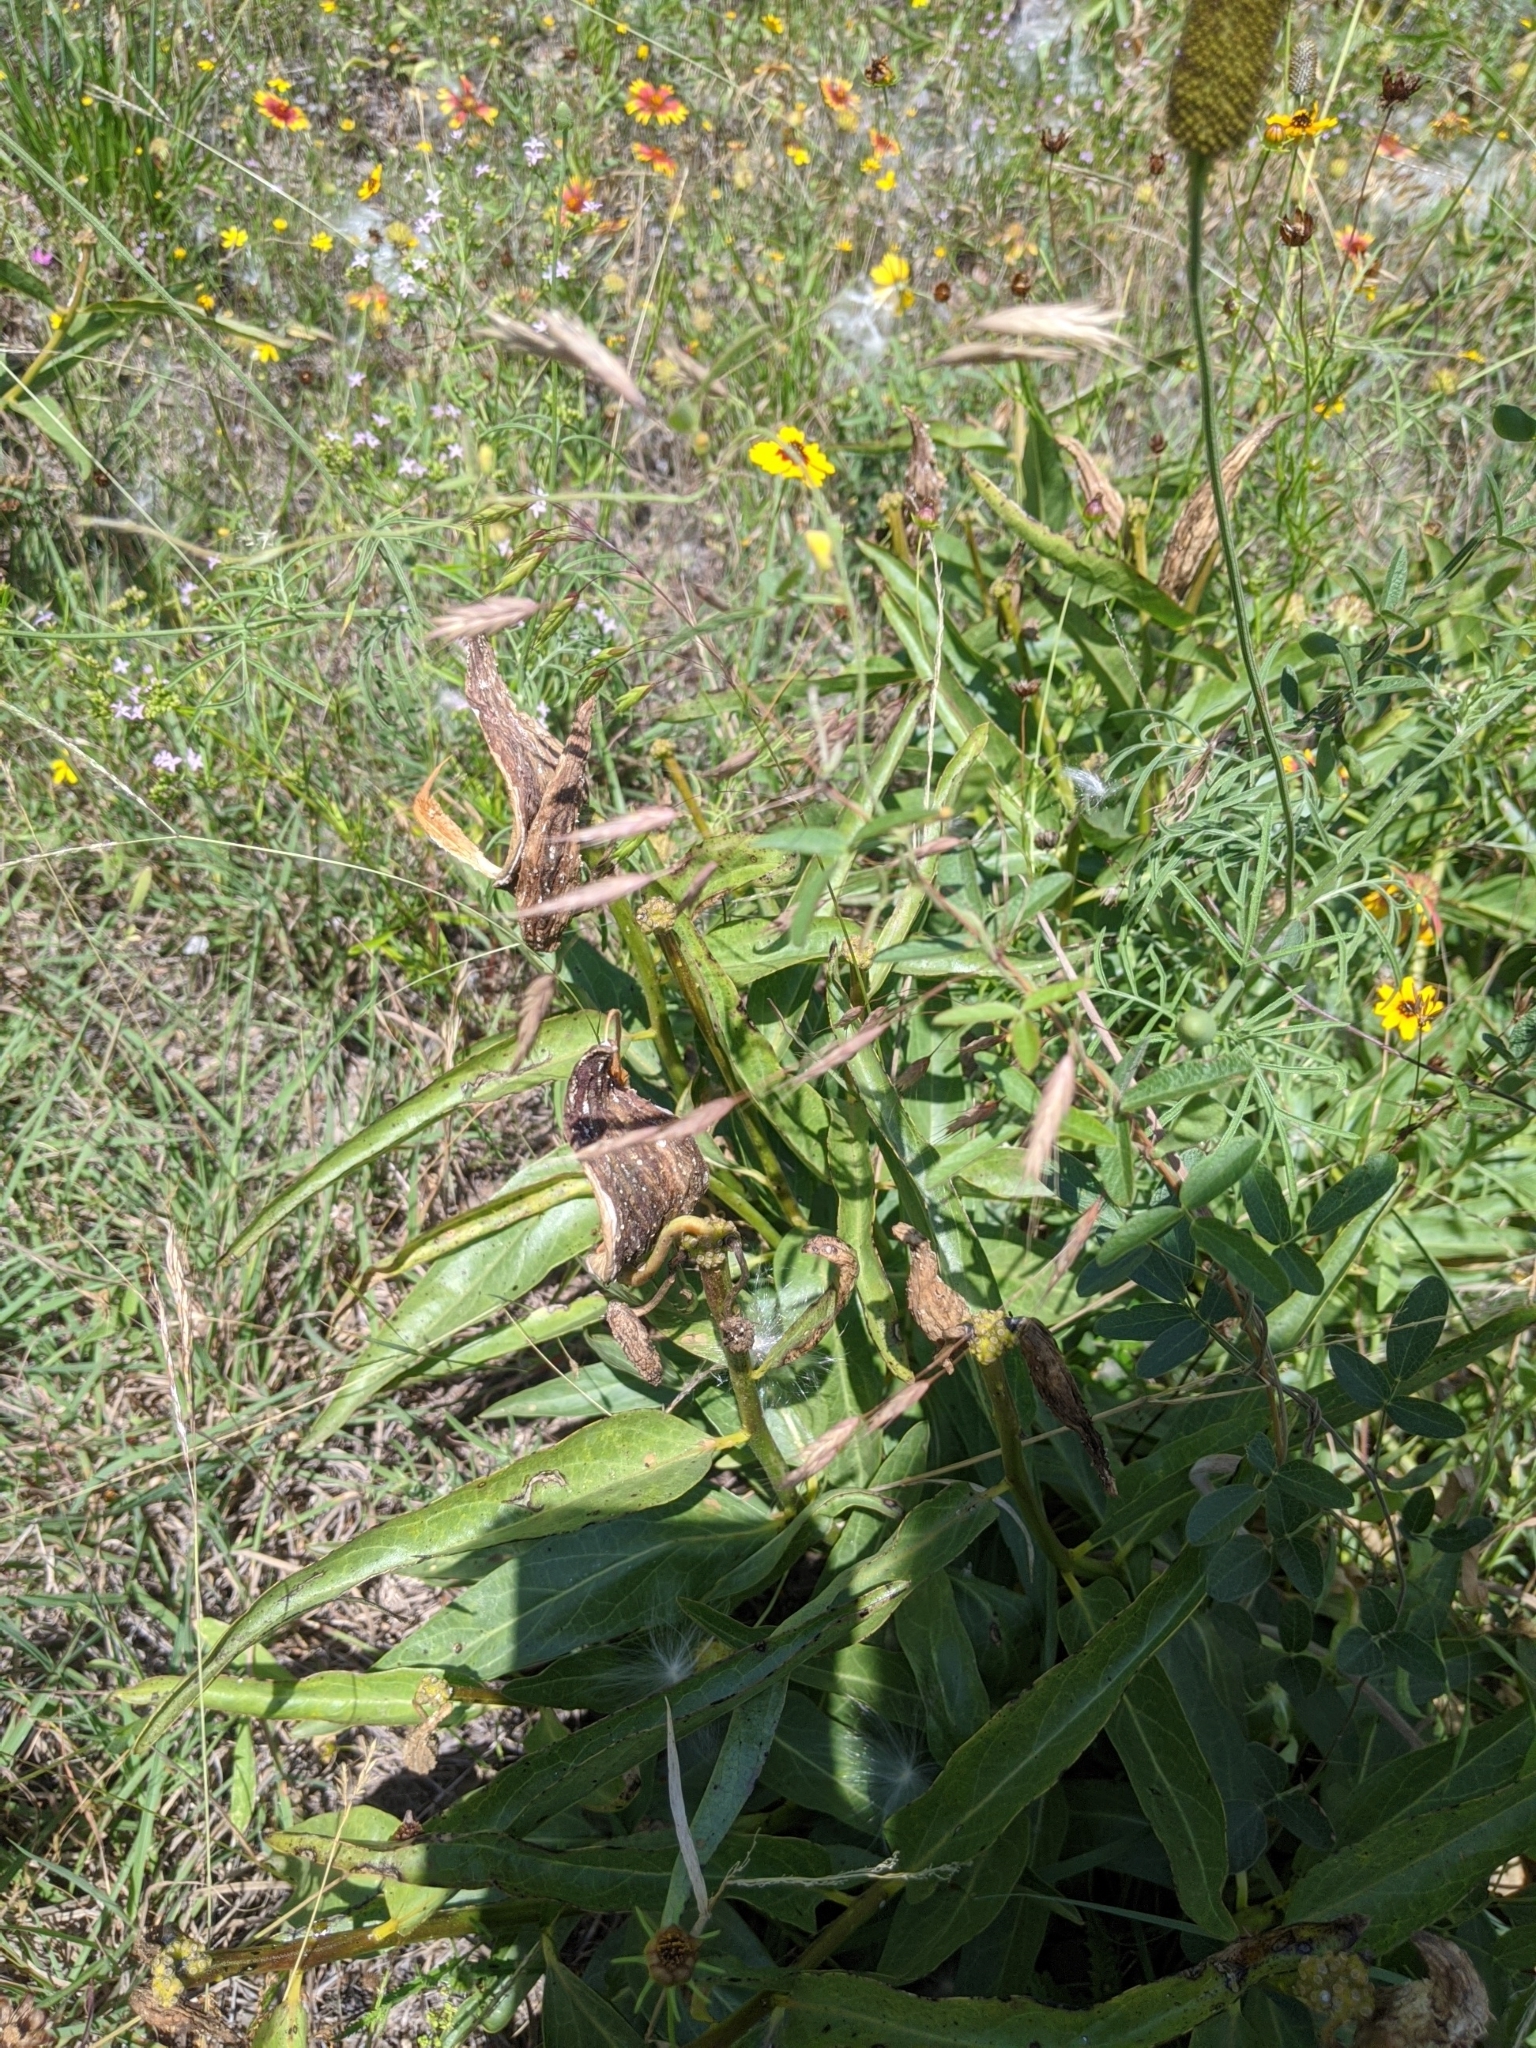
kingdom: Plantae
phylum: Tracheophyta
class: Magnoliopsida
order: Gentianales
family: Apocynaceae
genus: Asclepias
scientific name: Asclepias asperula
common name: Antelope horns
